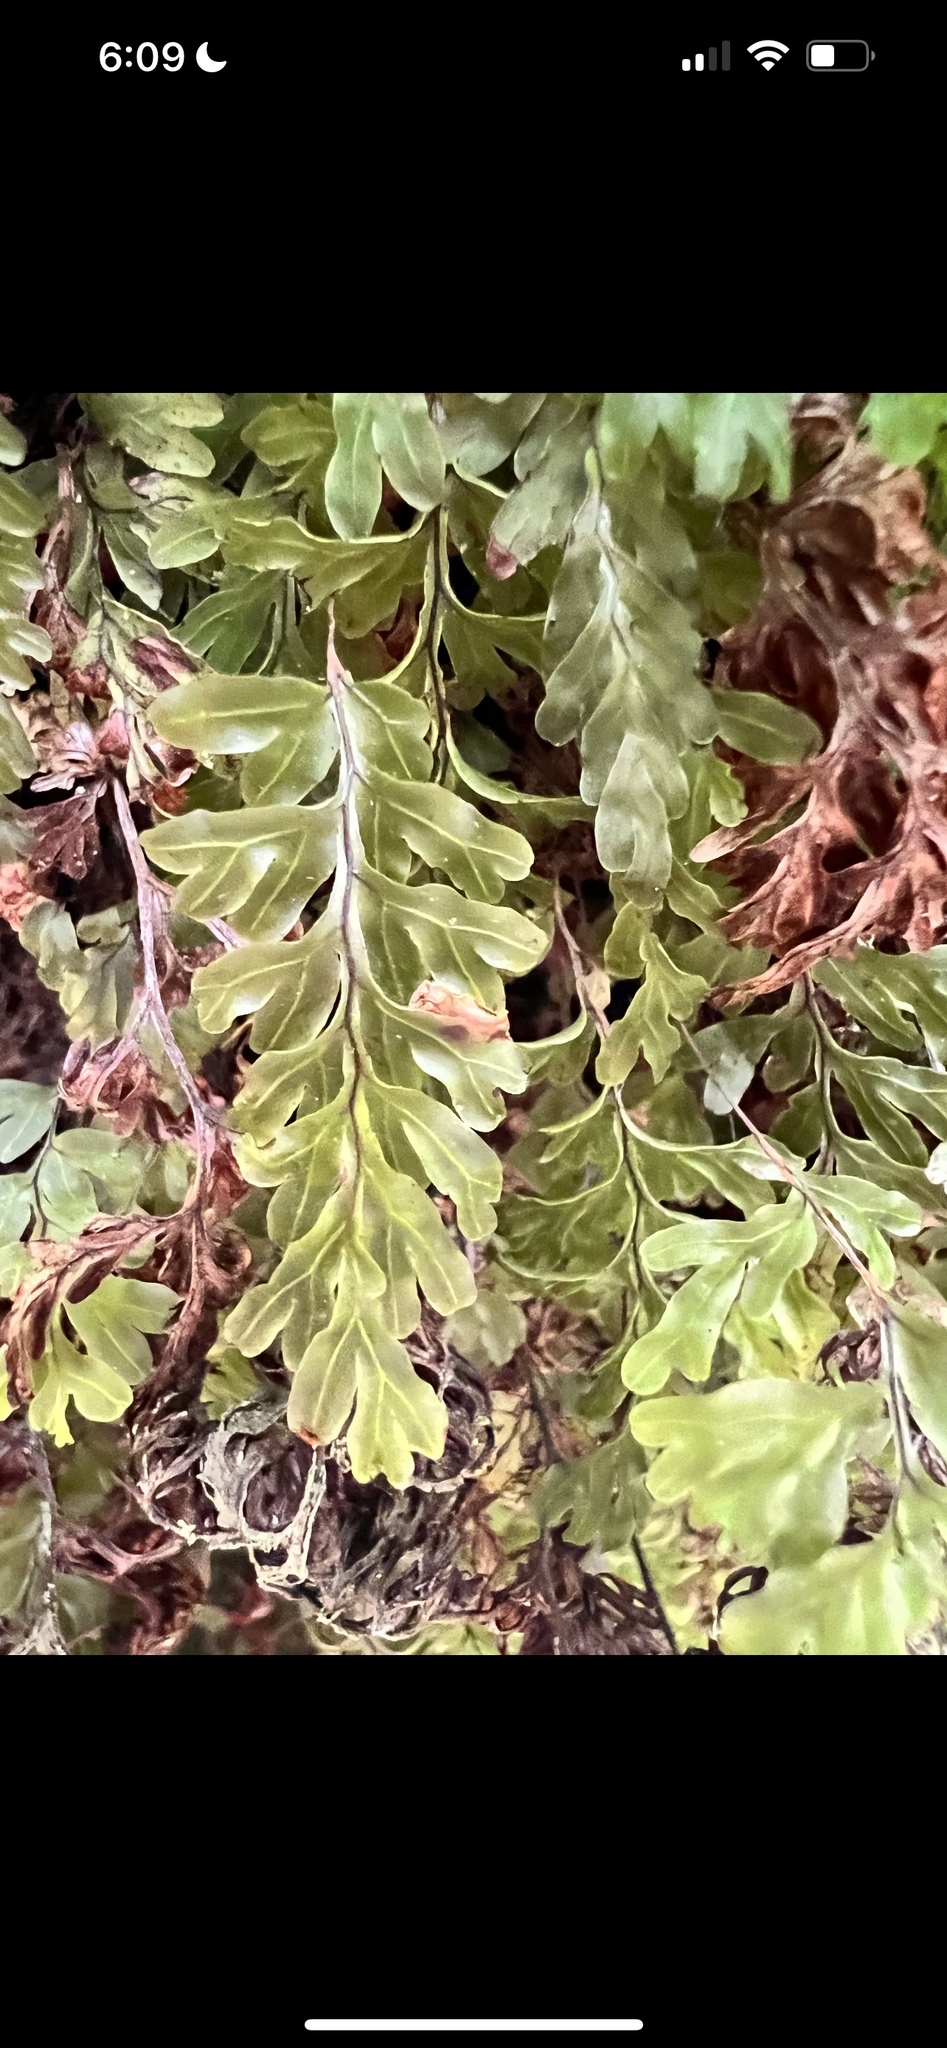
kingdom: Plantae
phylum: Tracheophyta
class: Polypodiopsida
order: Hymenophyllales
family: Hymenophyllaceae
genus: Hymenophyllum
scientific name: Hymenophyllum rarum
